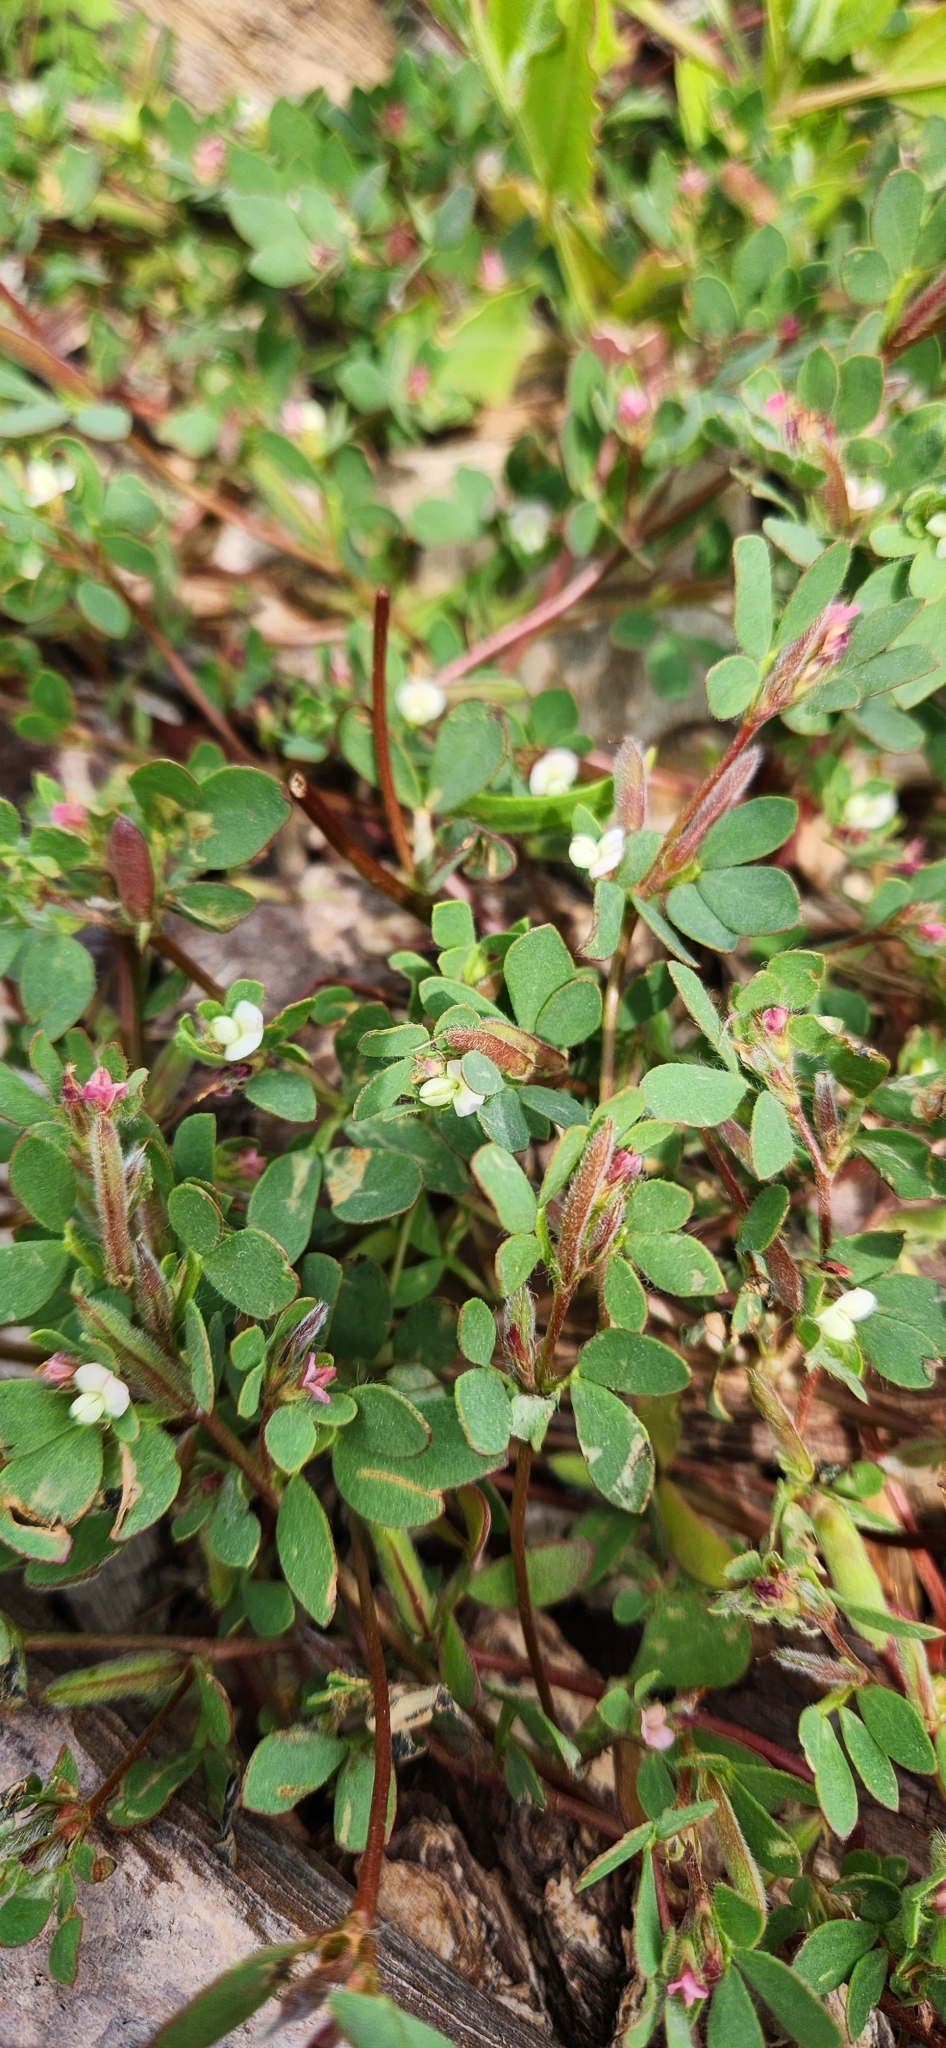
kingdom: Plantae
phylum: Tracheophyta
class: Magnoliopsida
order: Fabales
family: Fabaceae
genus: Acmispon
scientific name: Acmispon parviflorus
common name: Desert deer-vetch
